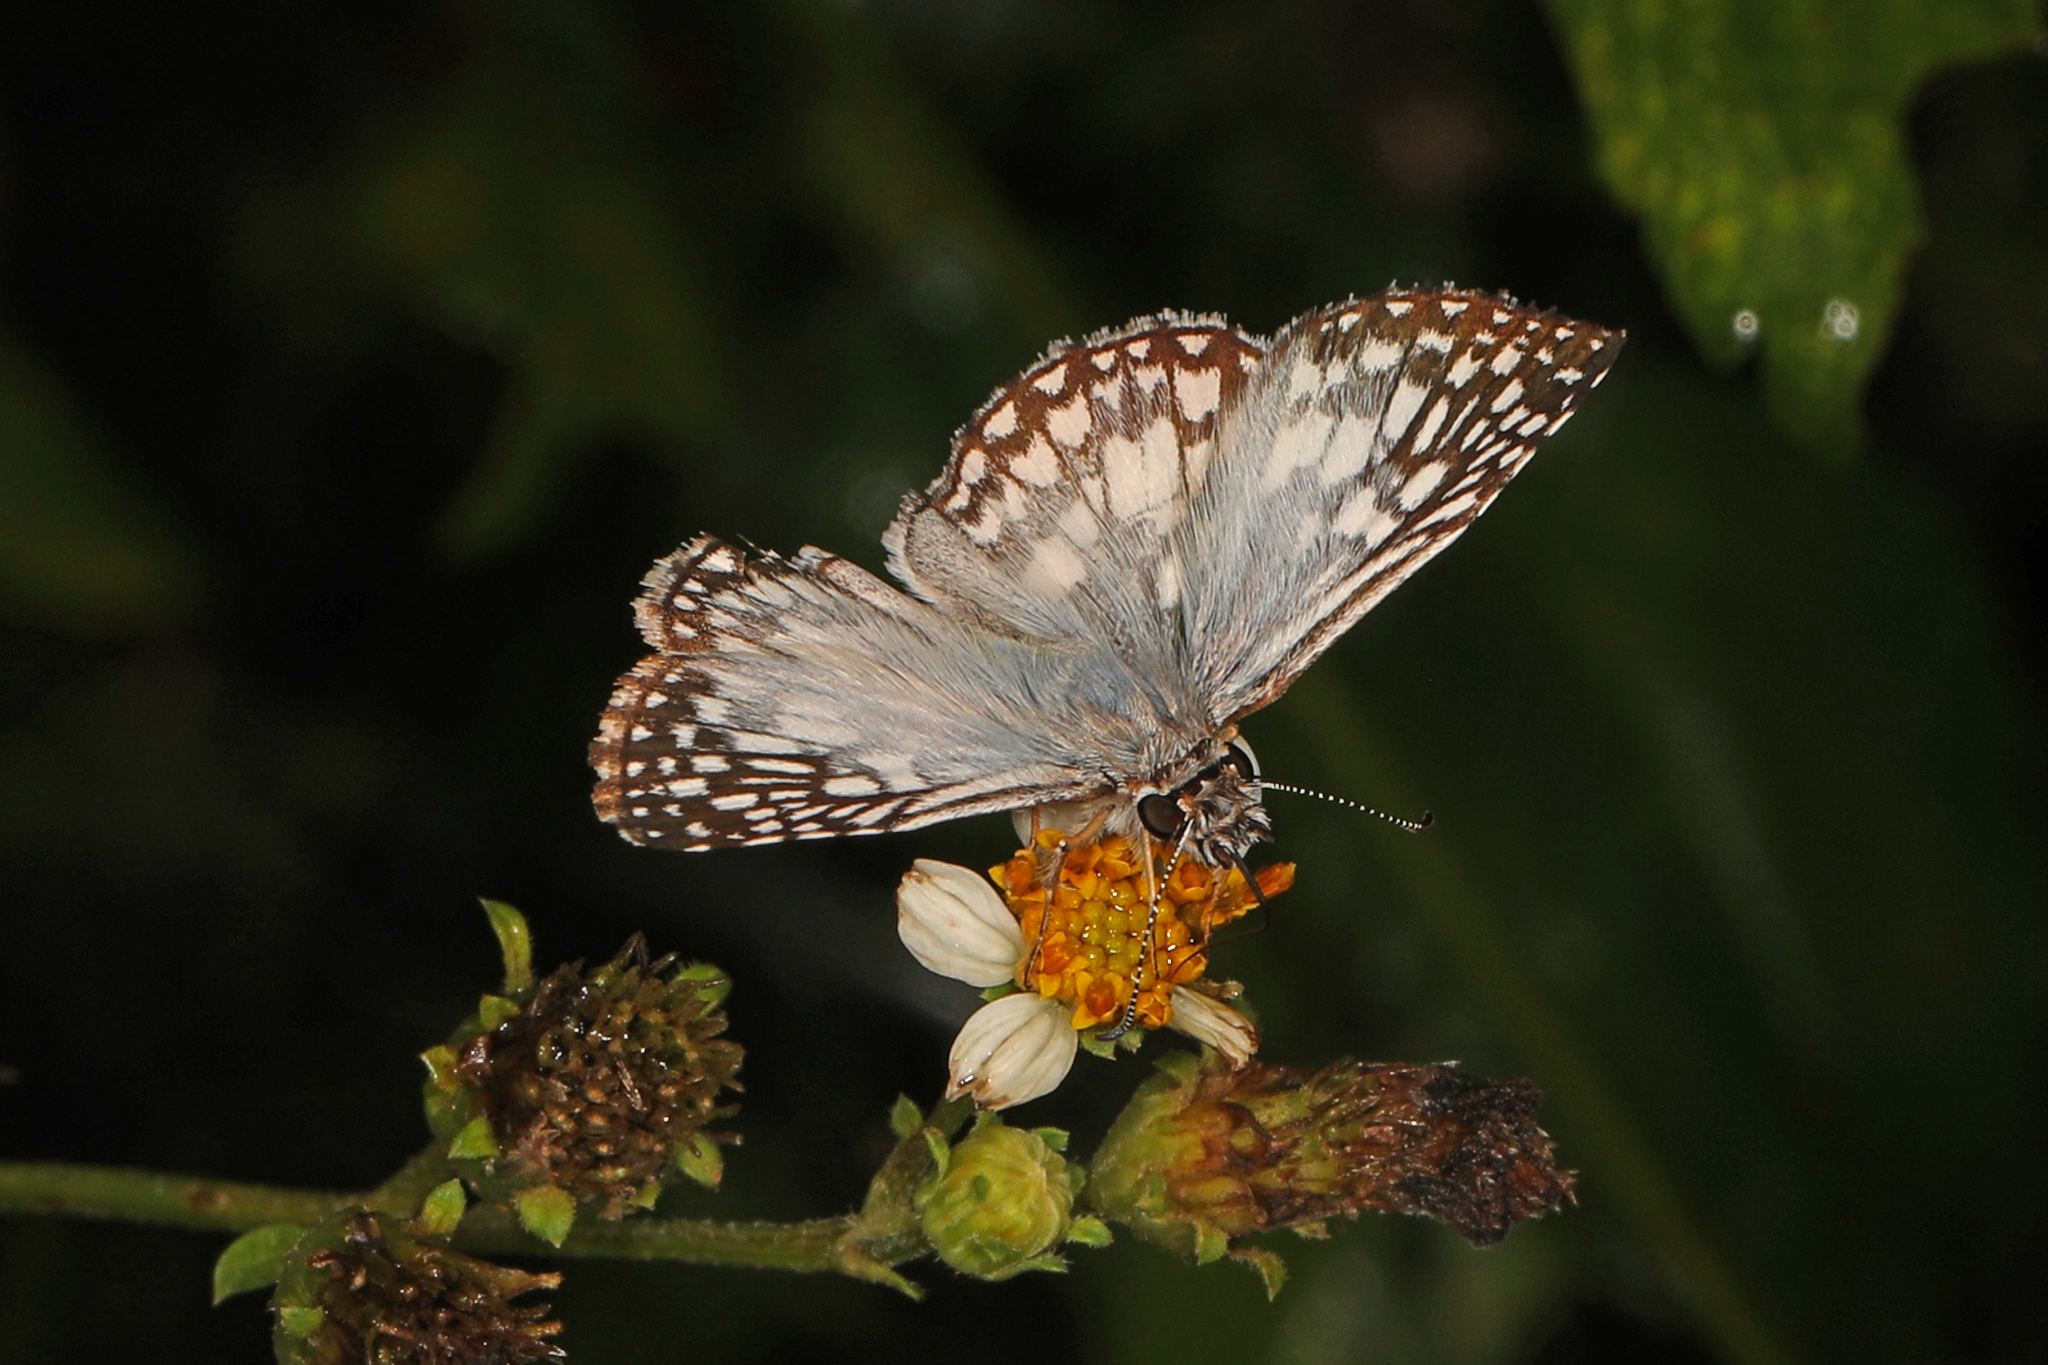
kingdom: Animalia
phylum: Arthropoda
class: Insecta
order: Lepidoptera
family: Hesperiidae
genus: Pyrgus
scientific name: Pyrgus oileus
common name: Tropical checkered-skipper
